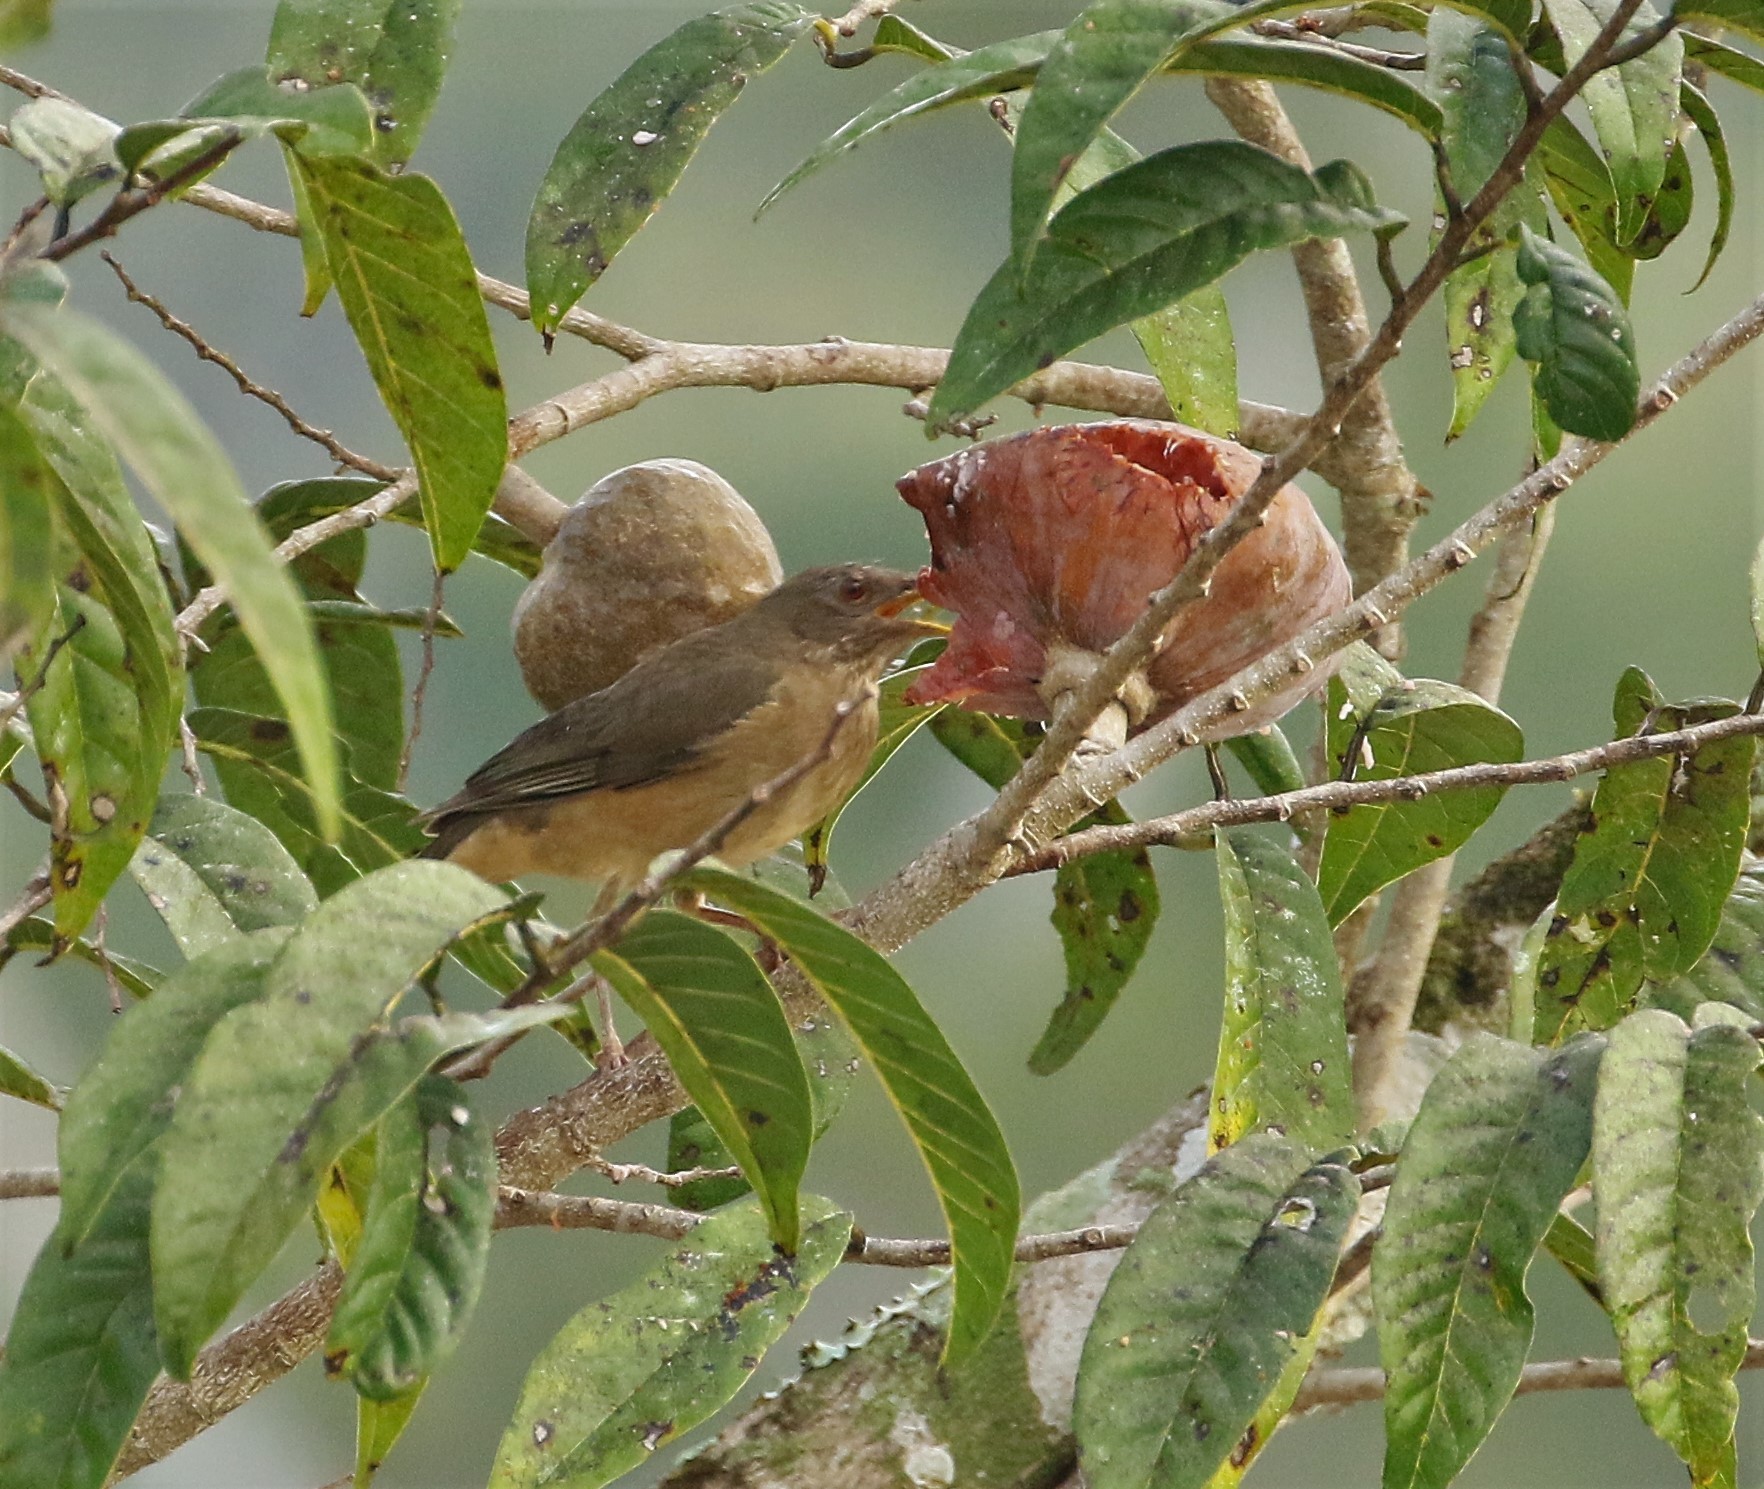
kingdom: Animalia
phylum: Chordata
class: Aves
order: Passeriformes
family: Turdidae
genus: Turdus
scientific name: Turdus grayi
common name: Clay-colored thrush
